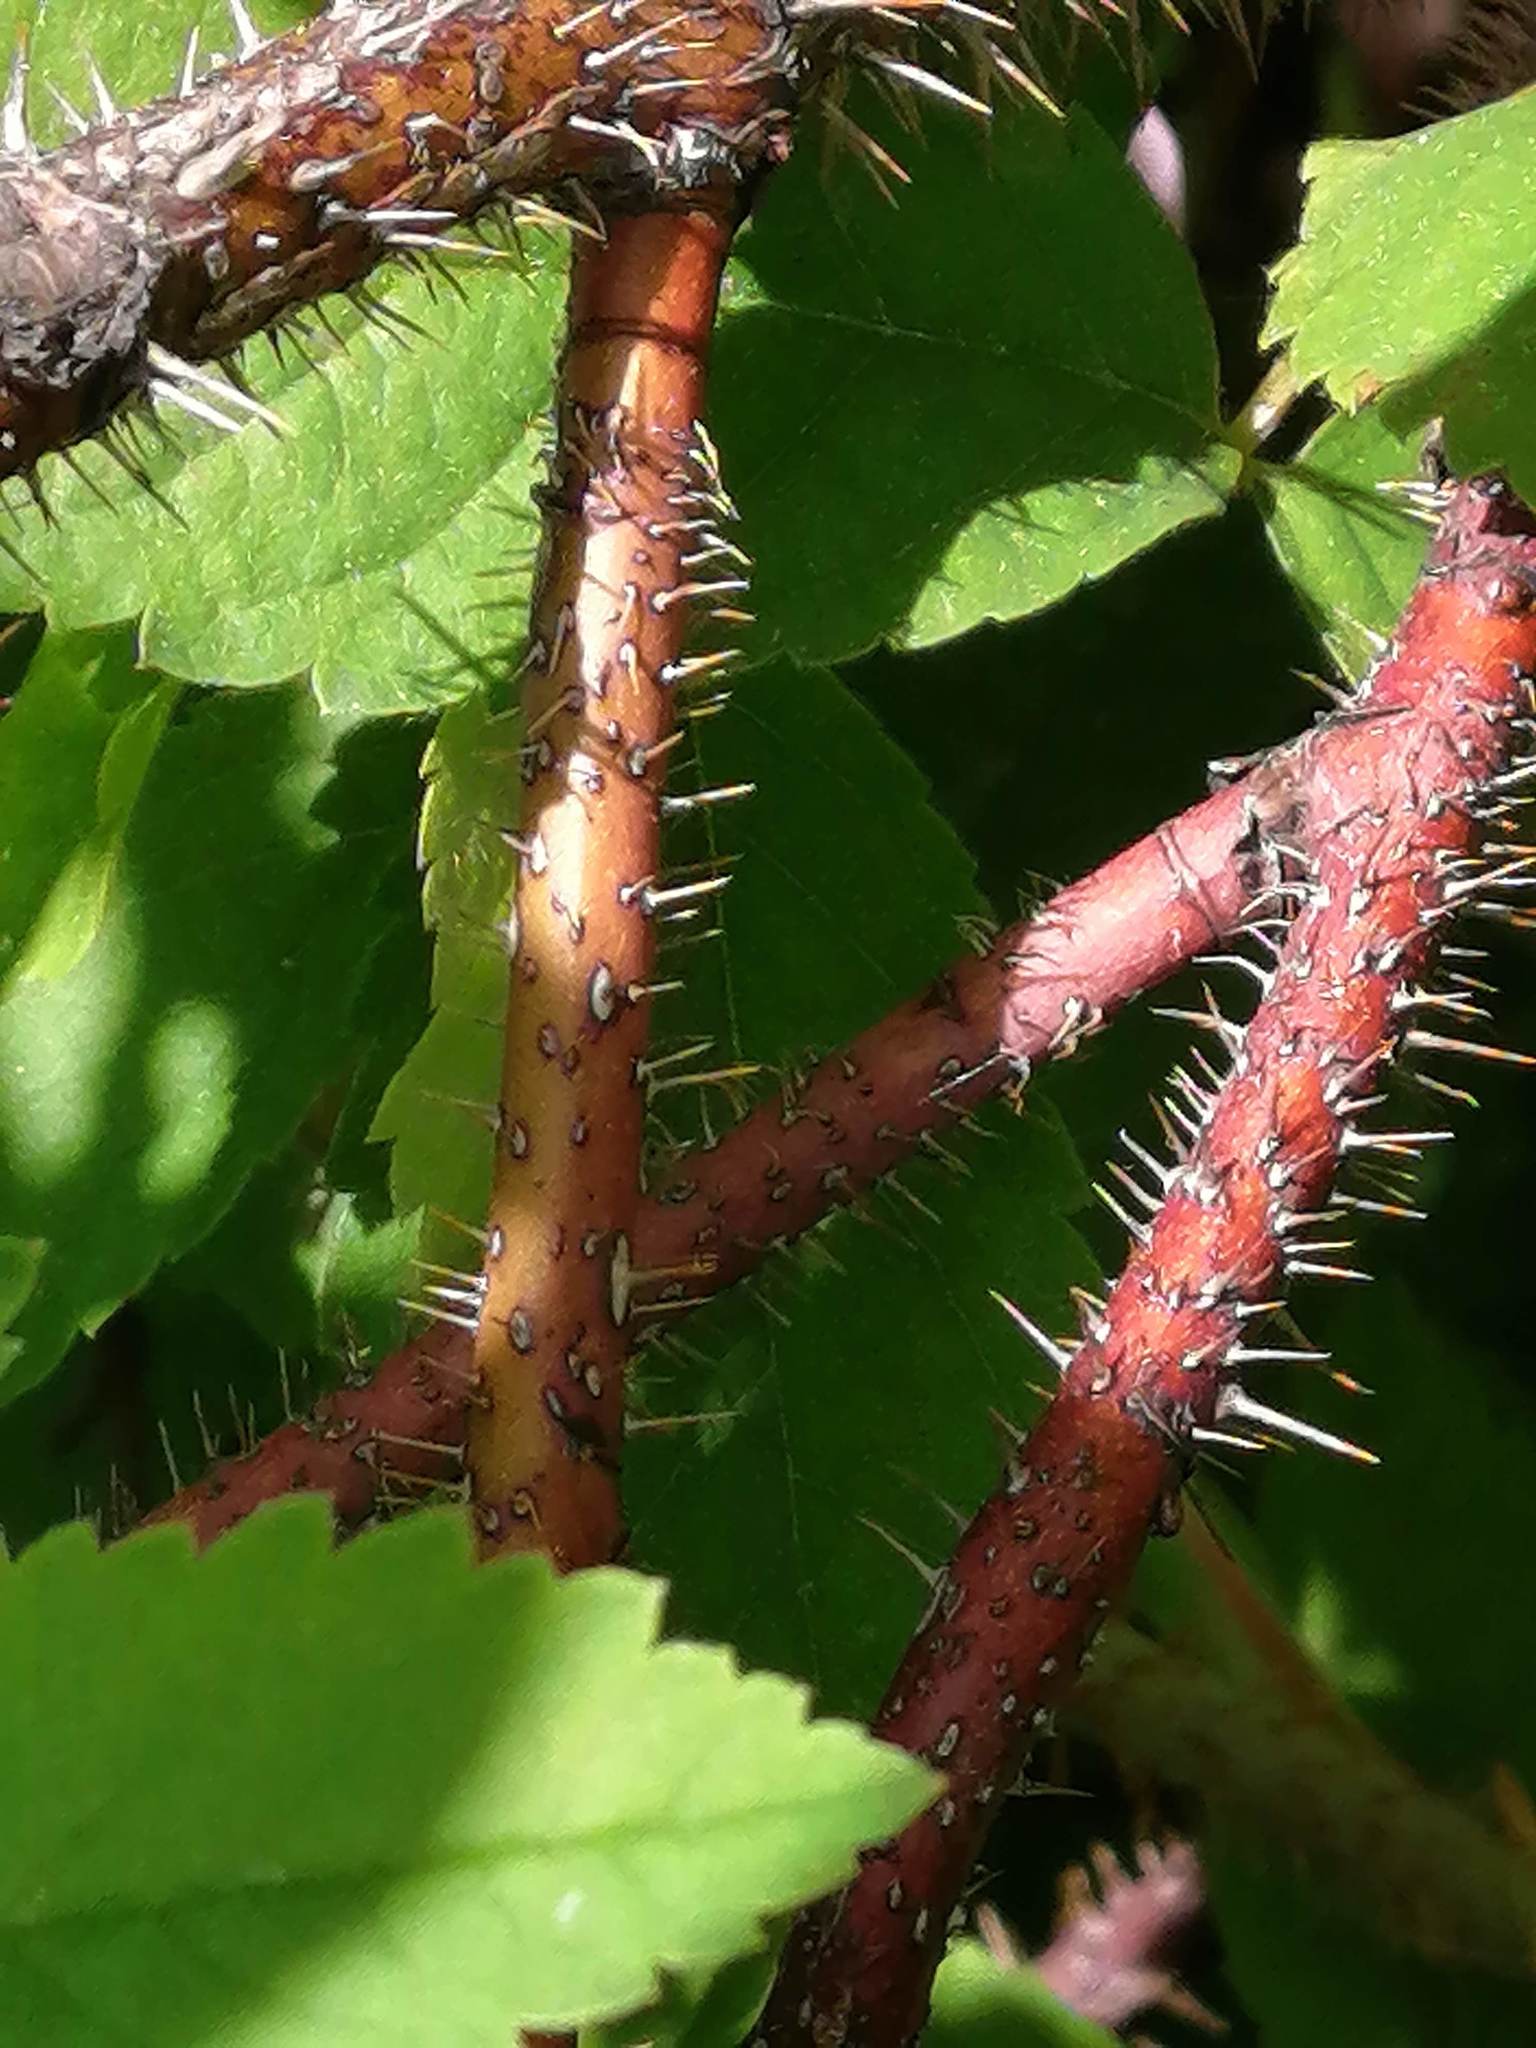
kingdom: Plantae
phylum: Tracheophyta
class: Magnoliopsida
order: Rosales
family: Rosaceae
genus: Rosa
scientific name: Rosa acicularis
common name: Prickly rose
